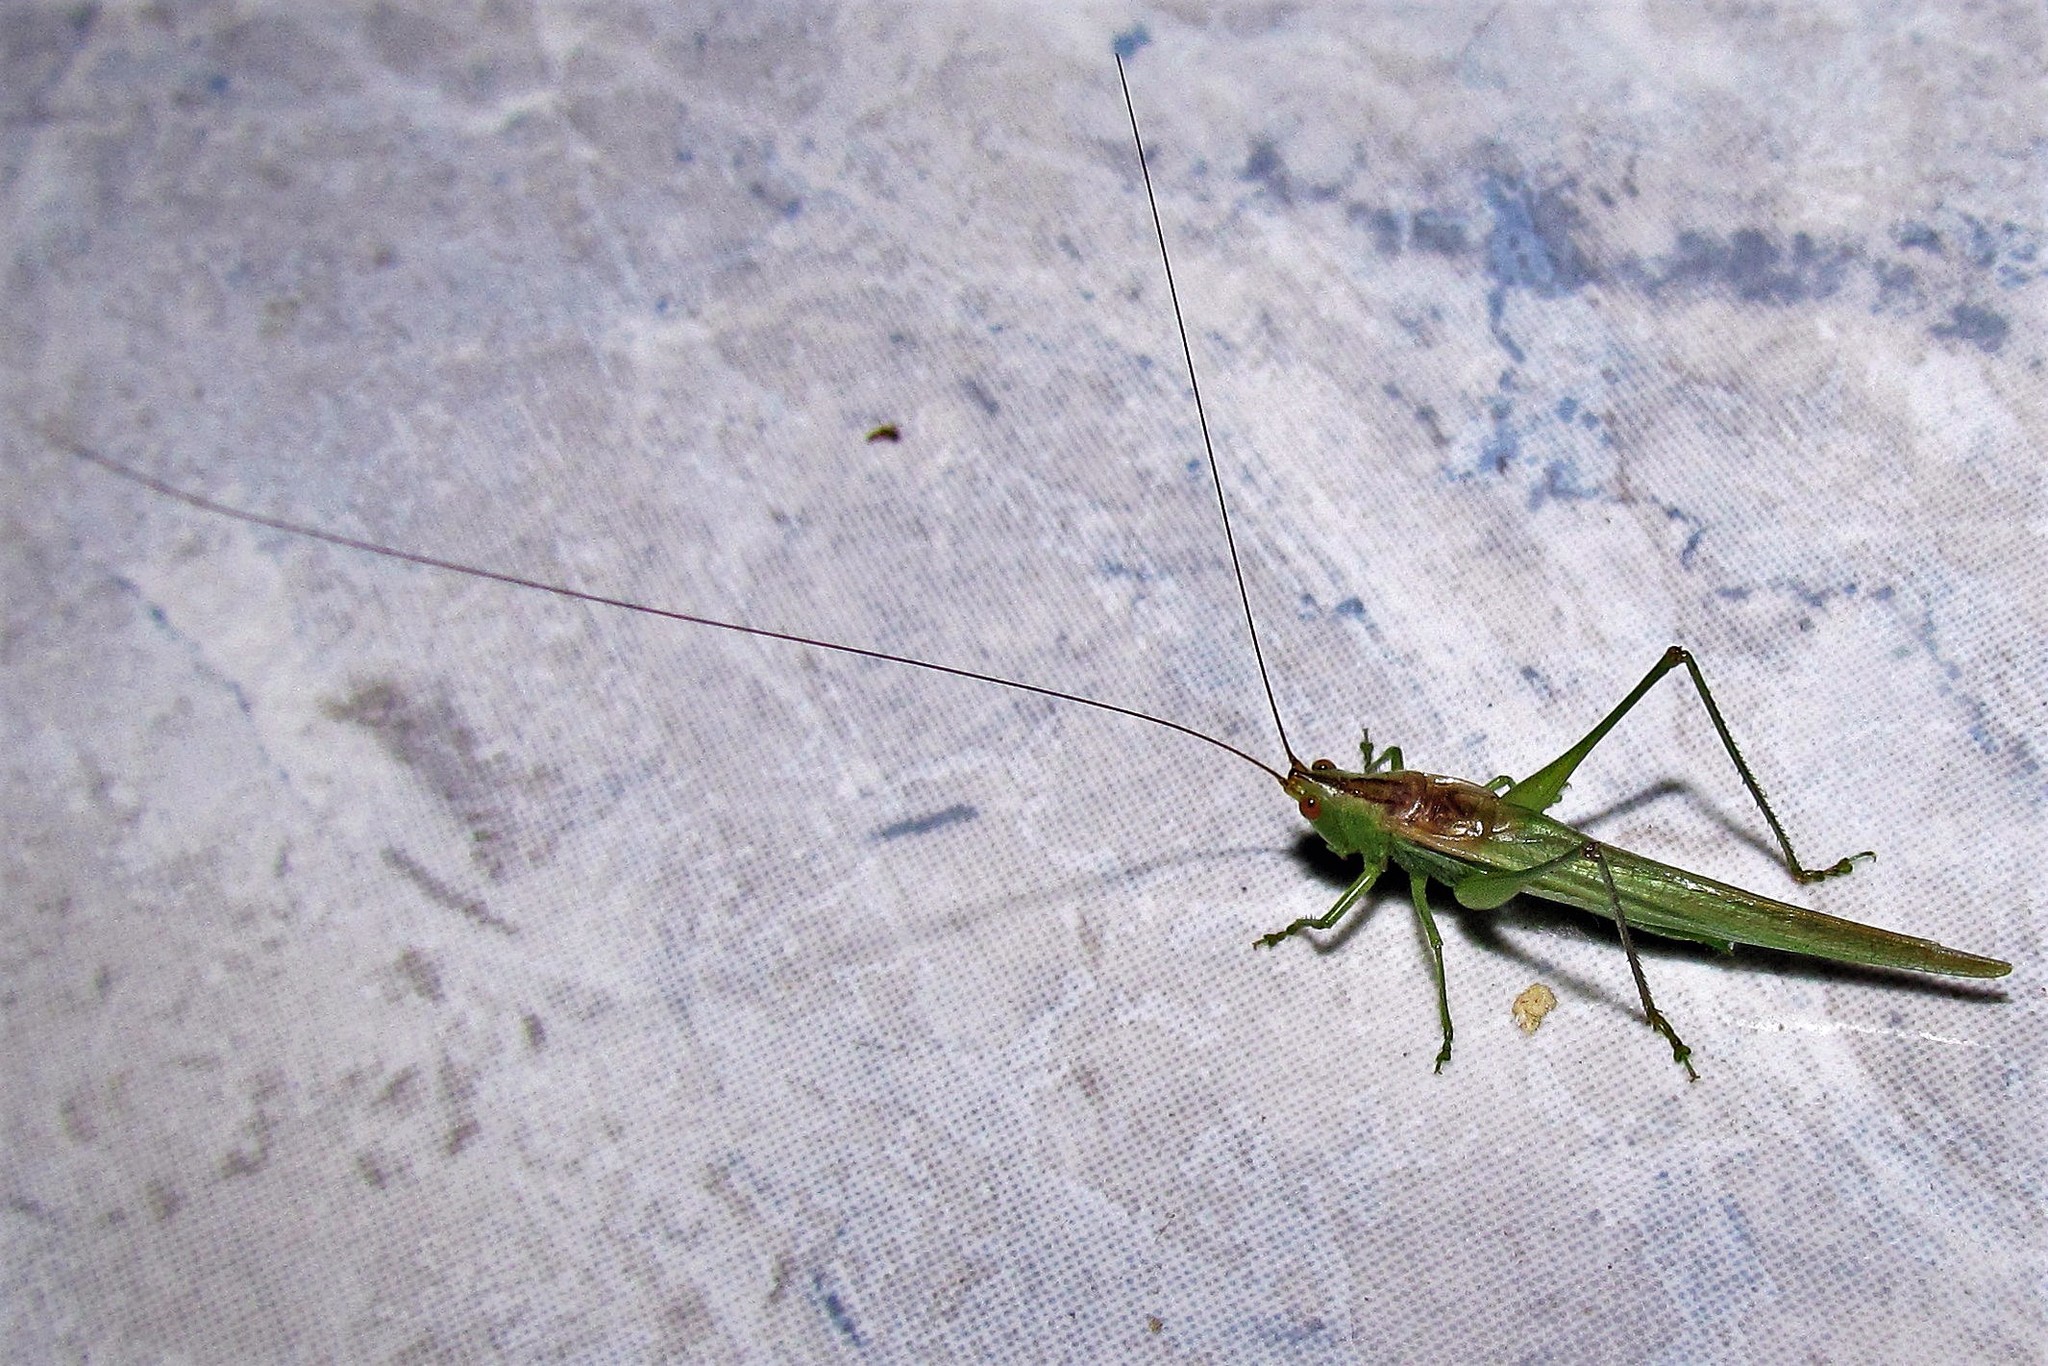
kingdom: Animalia
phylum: Arthropoda
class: Insecta
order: Orthoptera
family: Tettigoniidae
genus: Conocephalus
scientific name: Conocephalus longipes
